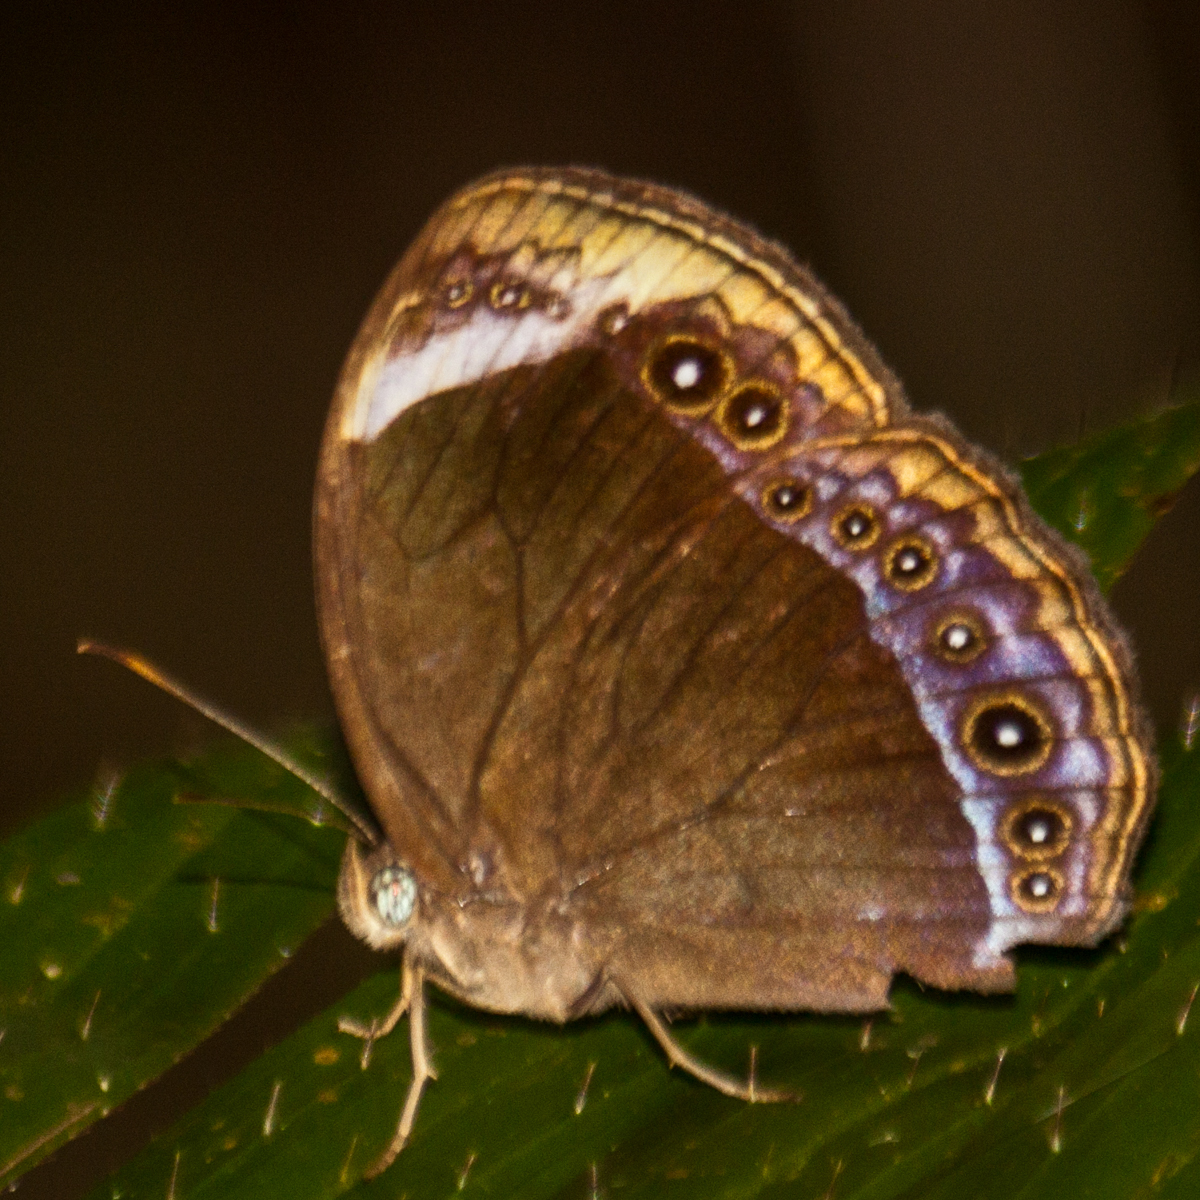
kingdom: Animalia
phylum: Arthropoda
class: Insecta
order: Lepidoptera
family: Nymphalidae
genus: Mycalesis
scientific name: Mycalesis anaxioides
